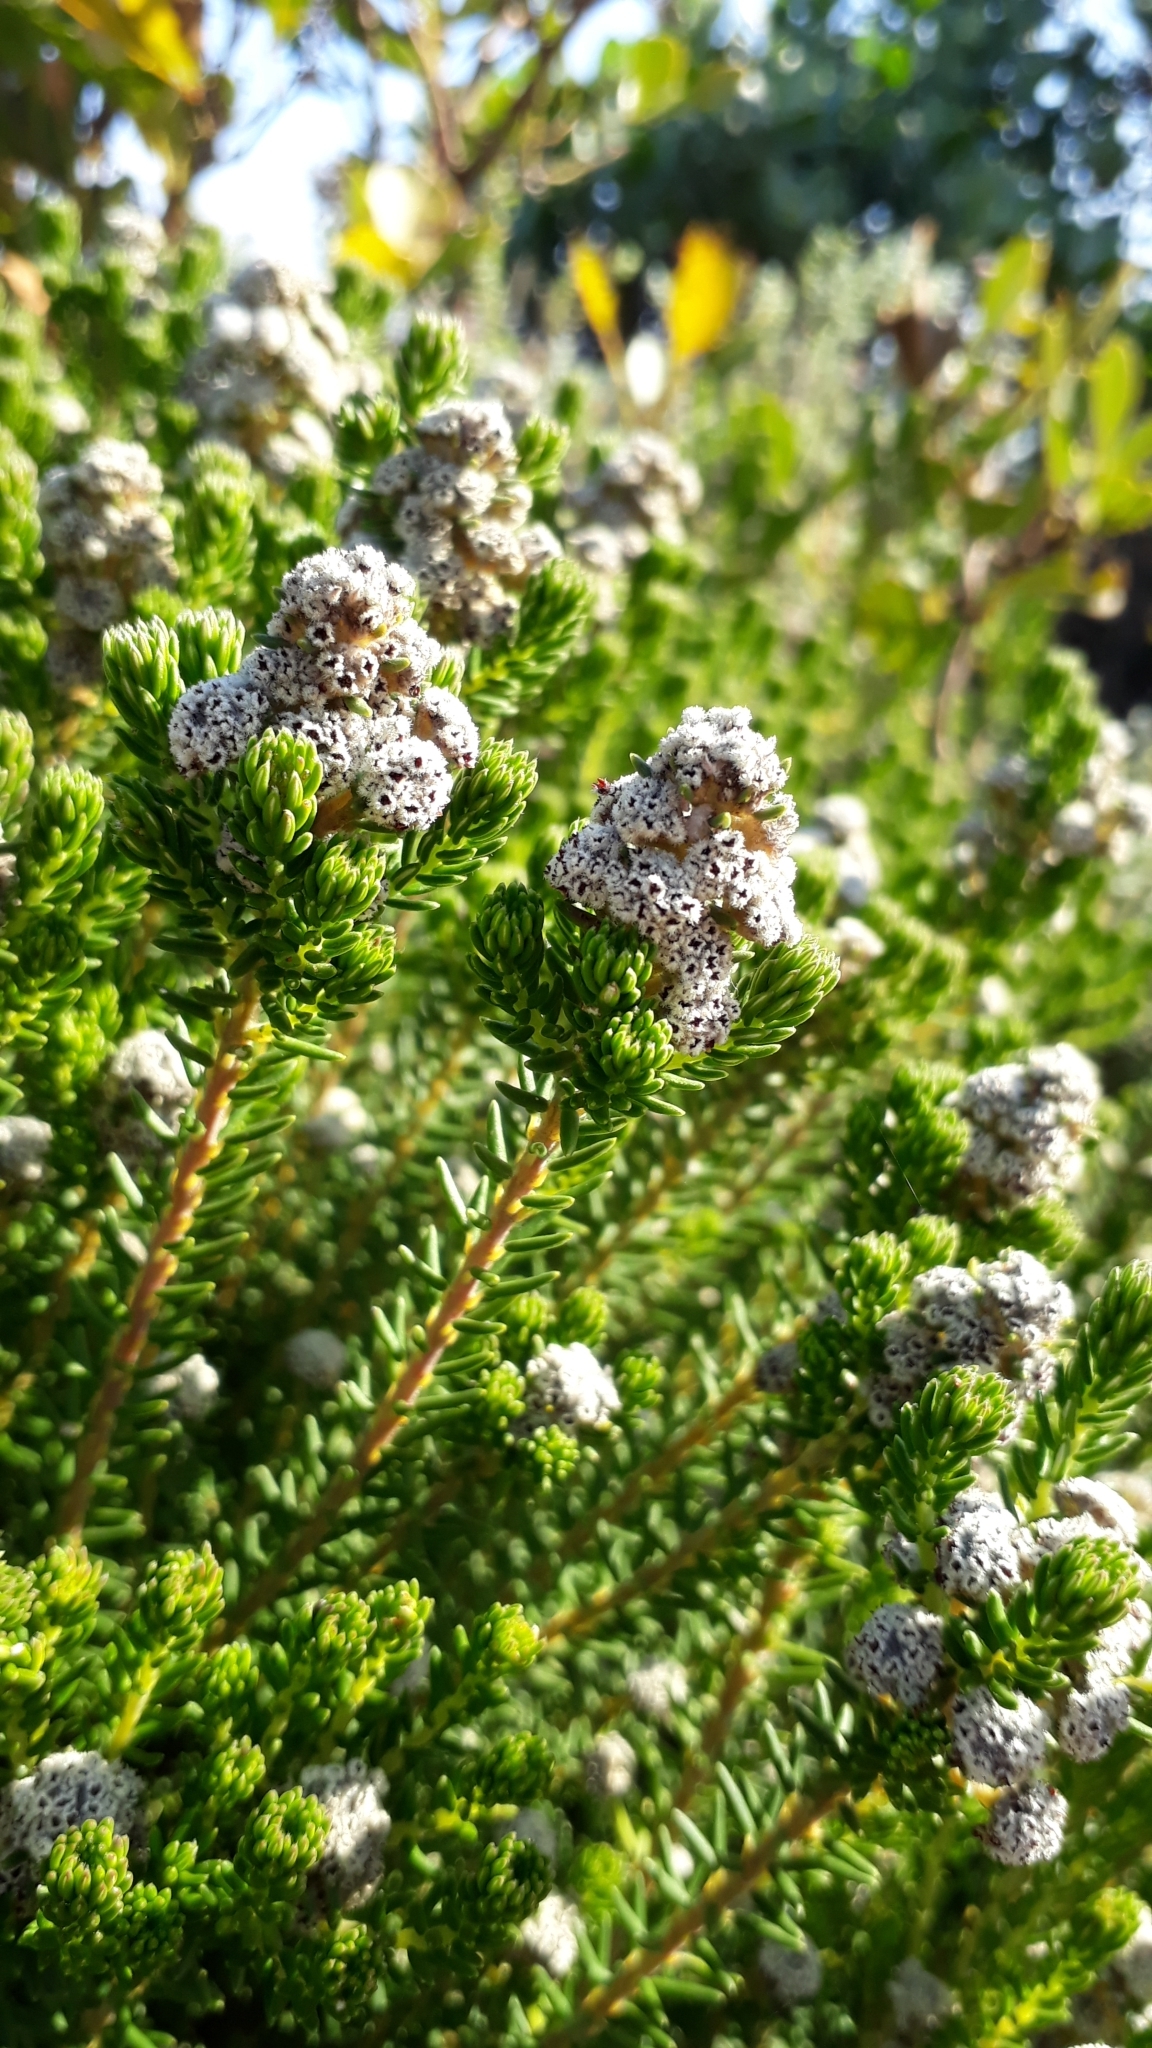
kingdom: Plantae
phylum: Tracheophyta
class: Magnoliopsida
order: Rosales
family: Rhamnaceae
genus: Phylica
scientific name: Phylica ericoides
